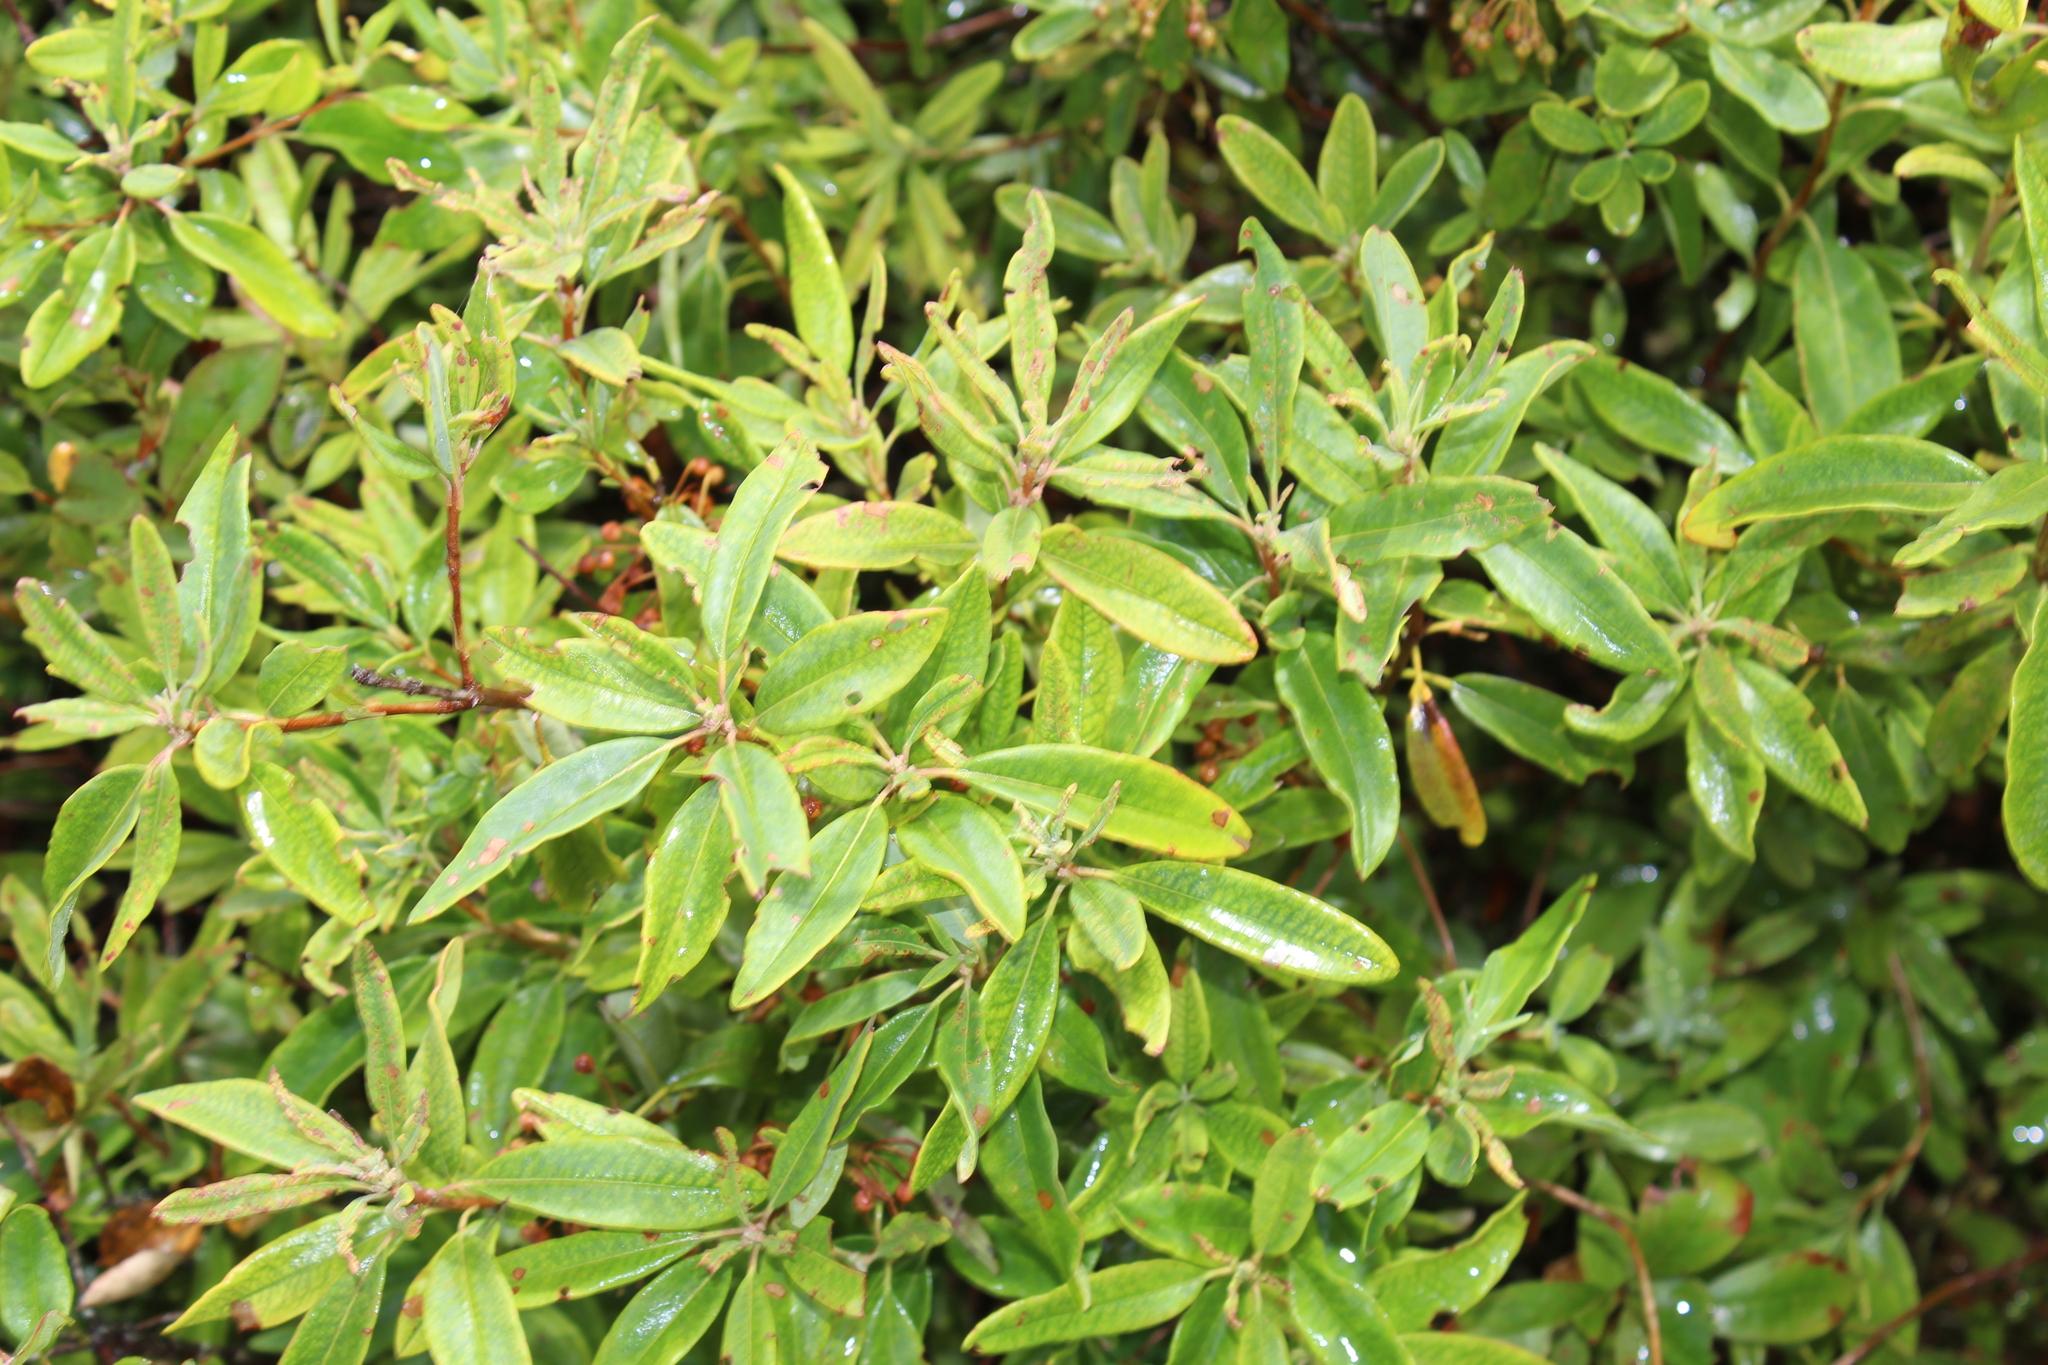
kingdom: Plantae
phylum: Tracheophyta
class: Magnoliopsida
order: Ericales
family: Ericaceae
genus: Kalmia
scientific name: Kalmia angustifolia
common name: Sheep-laurel
